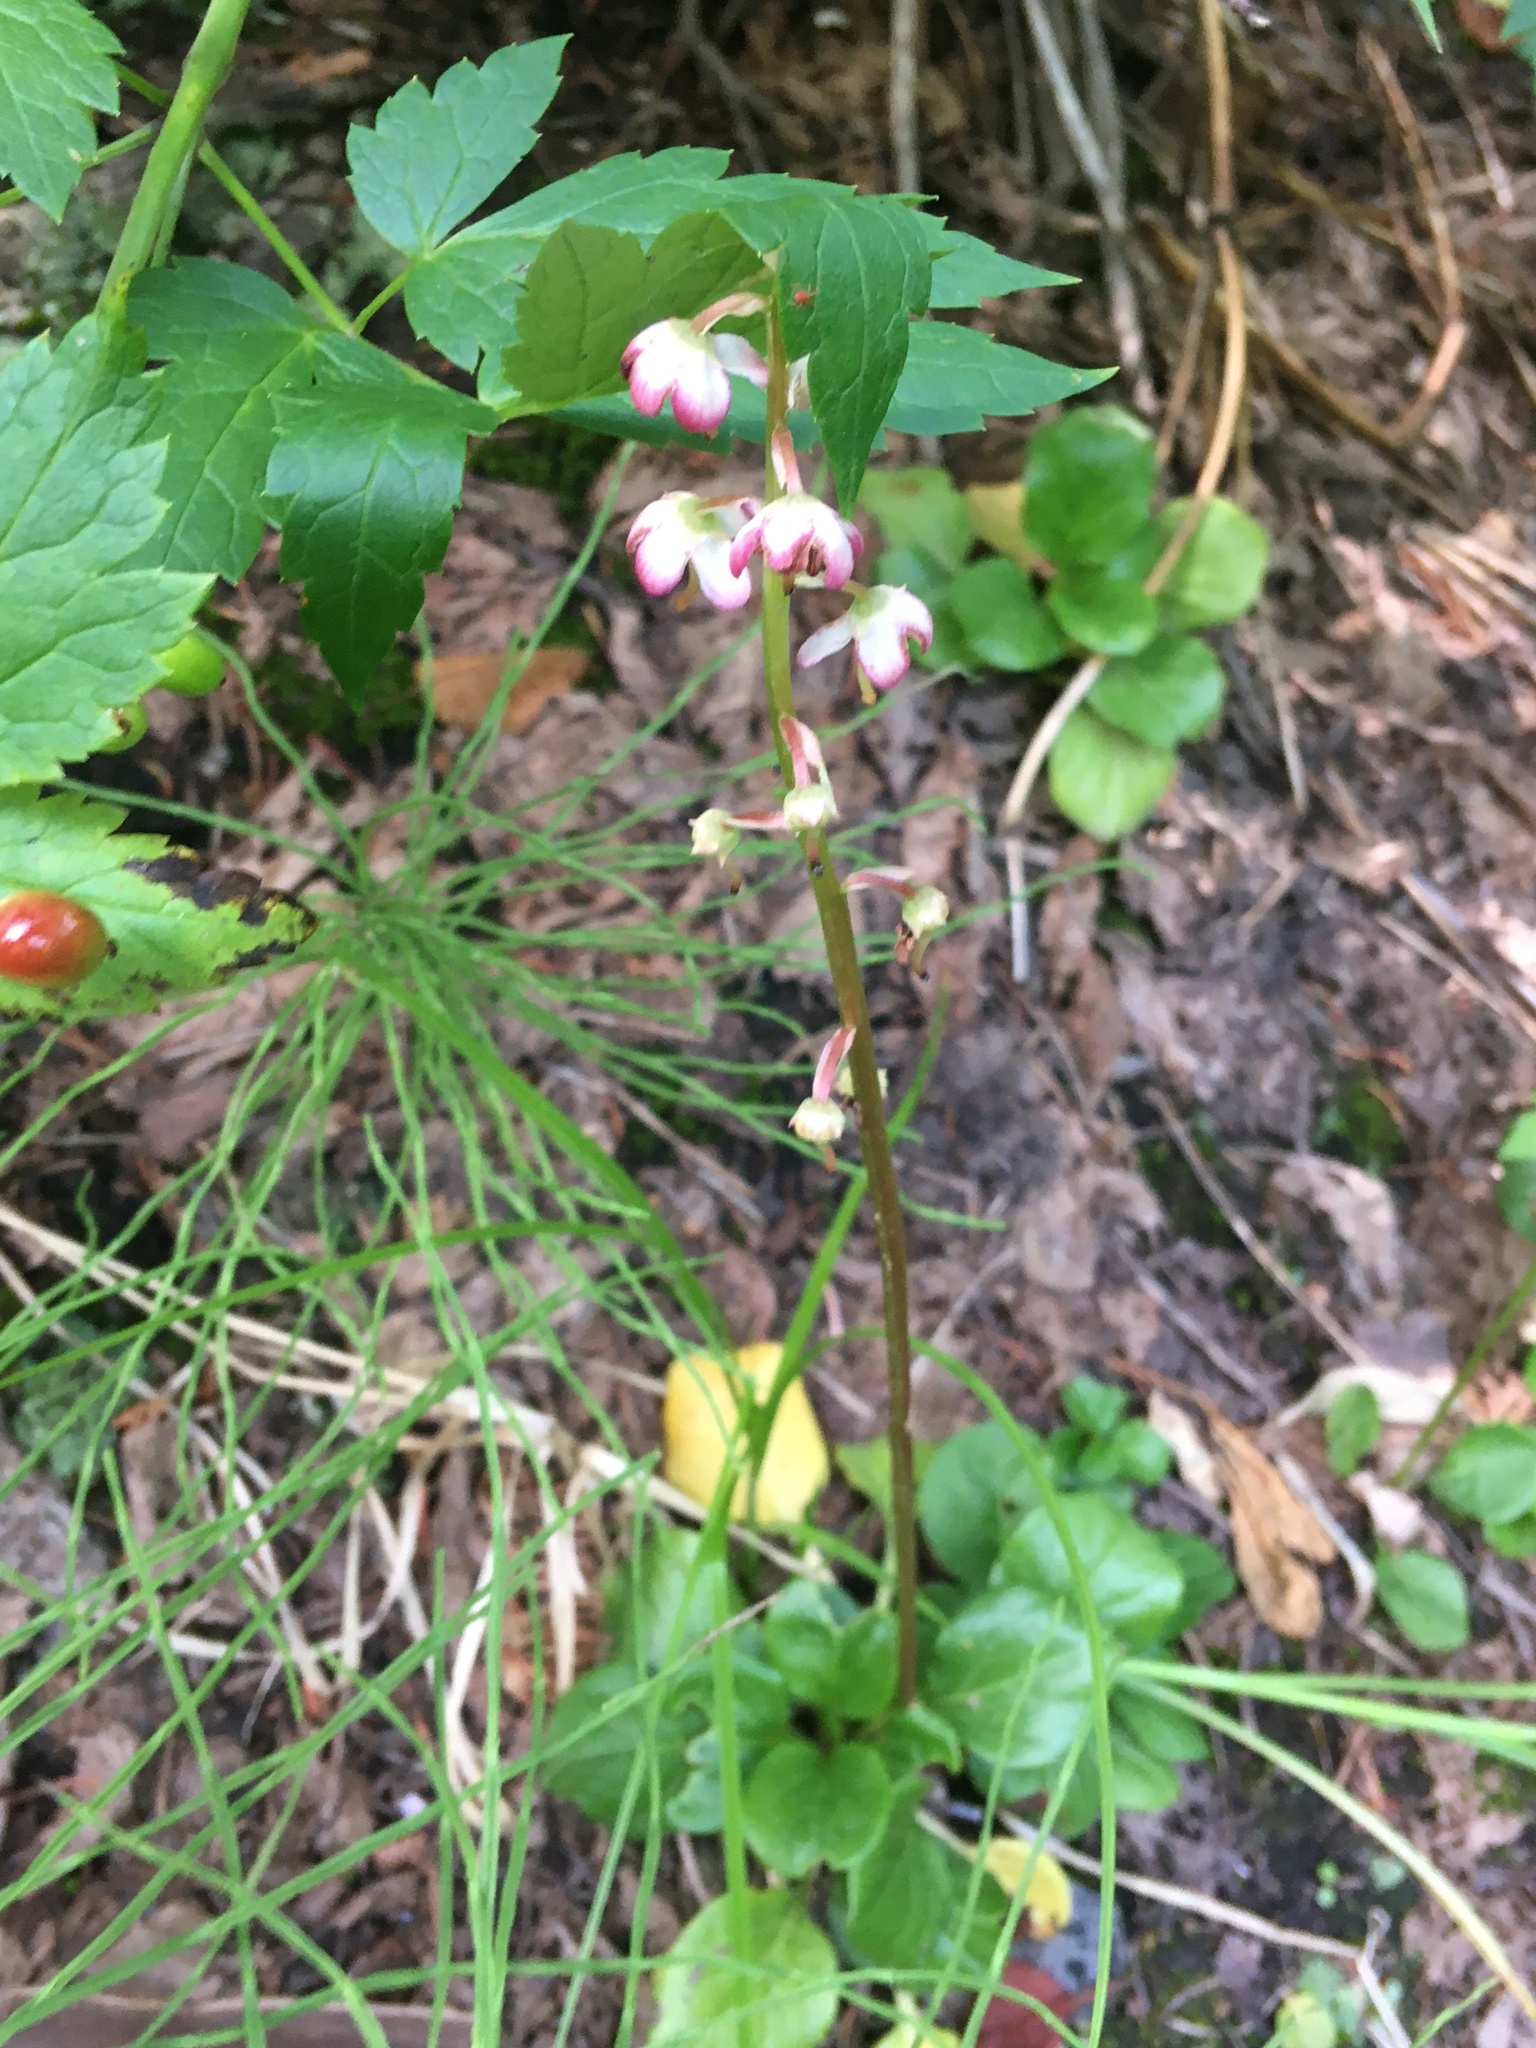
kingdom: Plantae
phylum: Tracheophyta
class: Magnoliopsida
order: Ericales
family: Ericaceae
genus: Pyrola
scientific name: Pyrola asarifolia
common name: Bog wintergreen
